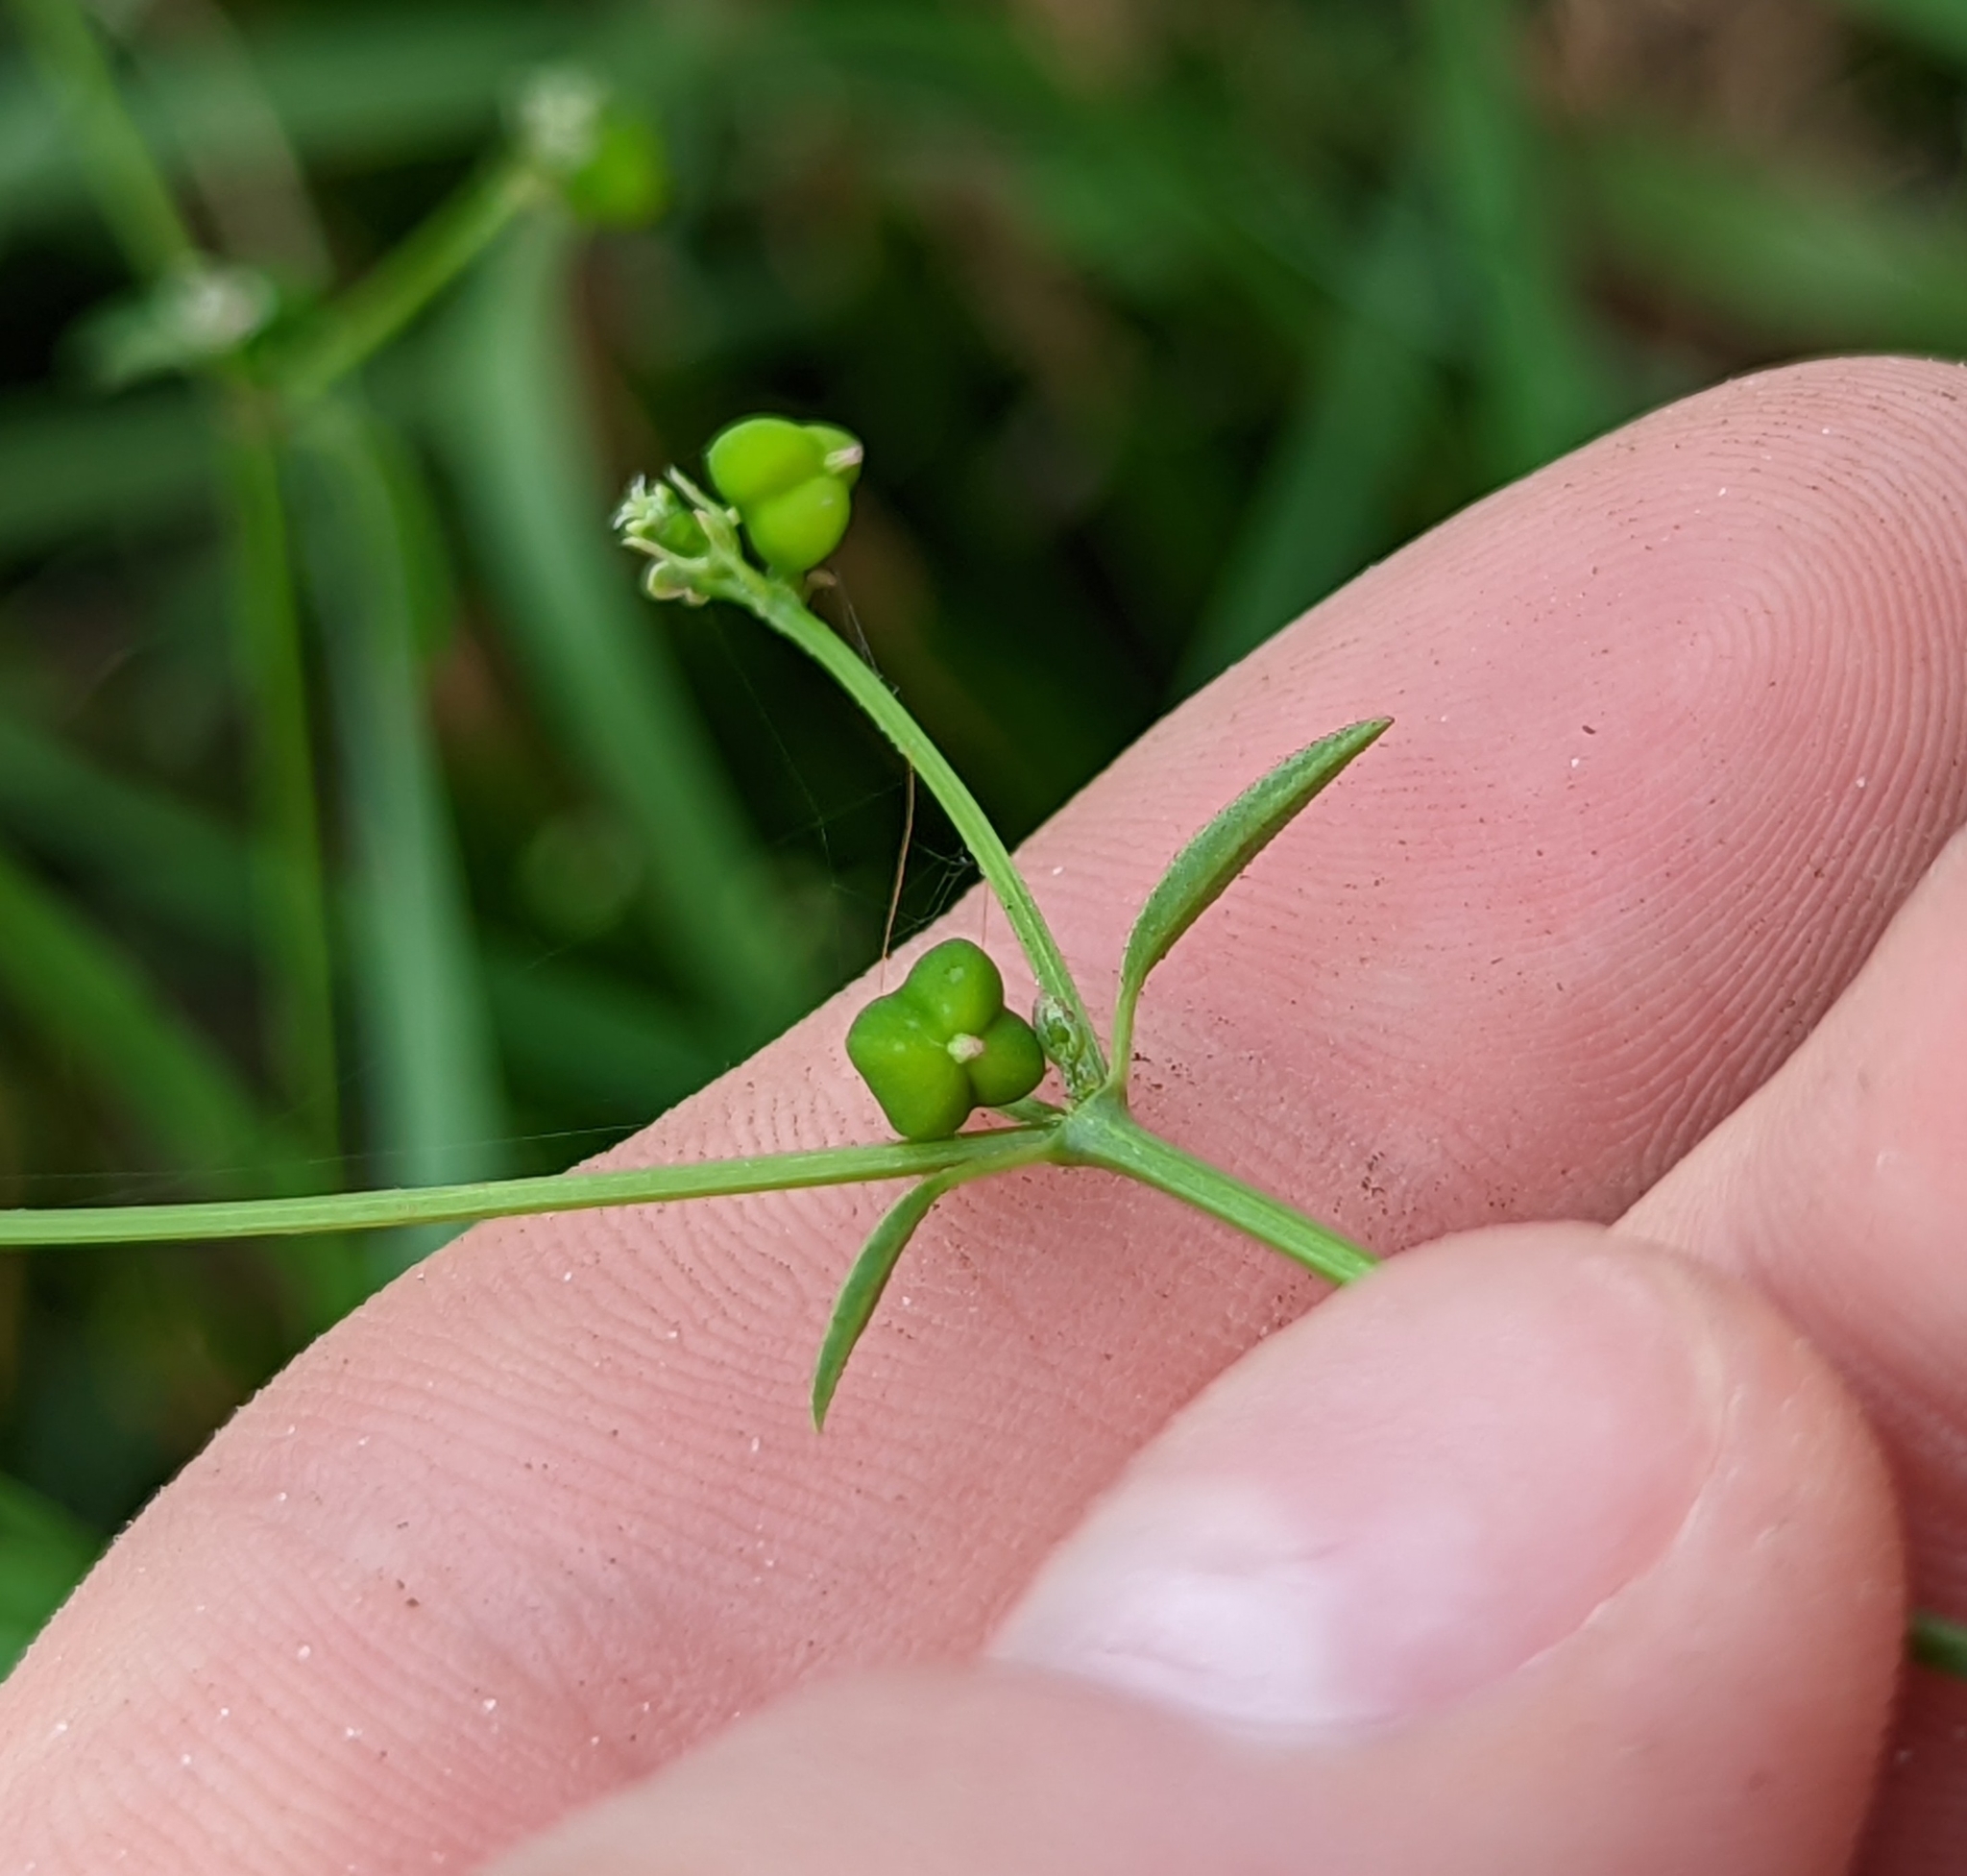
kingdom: Plantae
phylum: Tracheophyta
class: Magnoliopsida
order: Malpighiales
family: Euphorbiaceae
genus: Euphorbia
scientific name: Euphorbia graminea
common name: Grassleaf spurge
